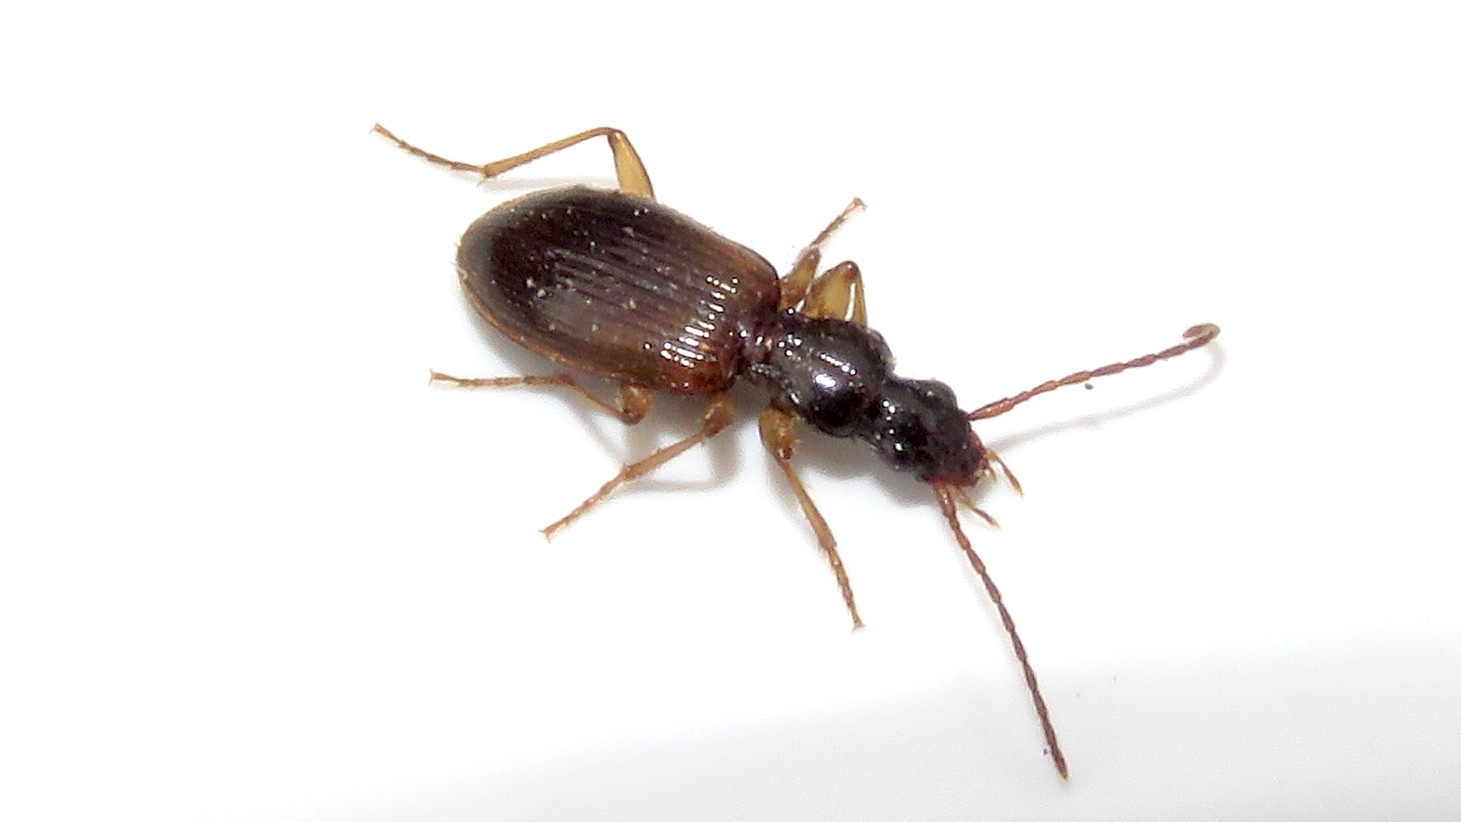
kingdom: Animalia
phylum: Arthropoda
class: Insecta
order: Coleoptera
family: Carabidae
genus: Oxypselaphus
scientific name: Oxypselaphus pusillus
